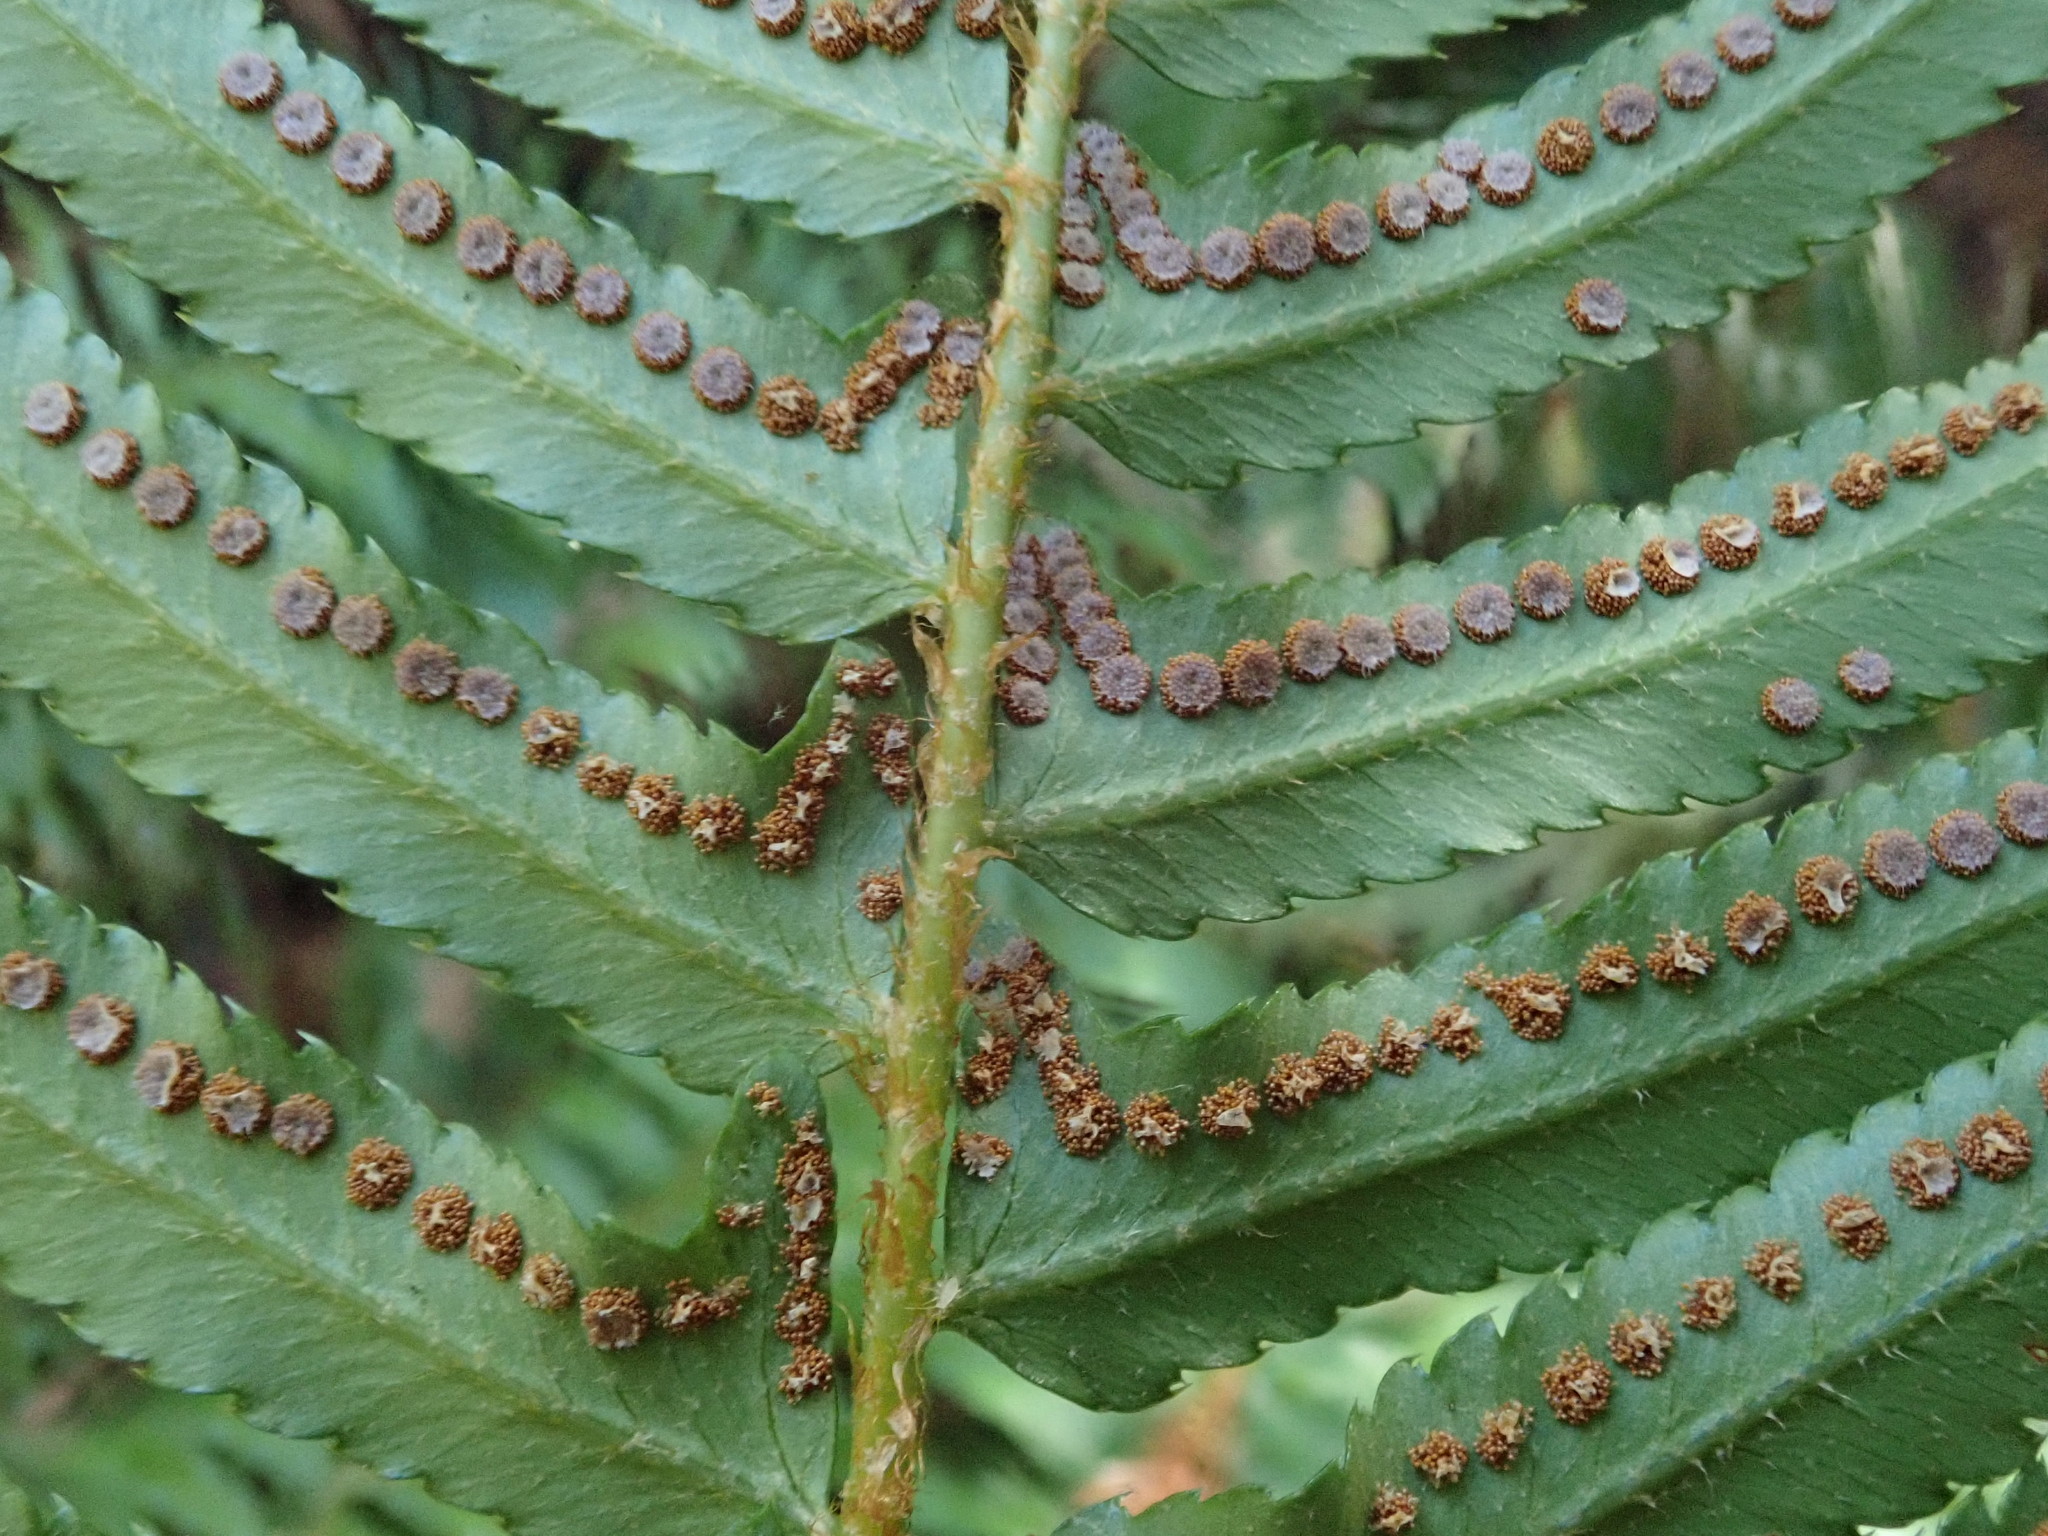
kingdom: Plantae
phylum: Tracheophyta
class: Polypodiopsida
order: Polypodiales
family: Dryopteridaceae
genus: Polystichum
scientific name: Polystichum munitum
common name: Western sword-fern
